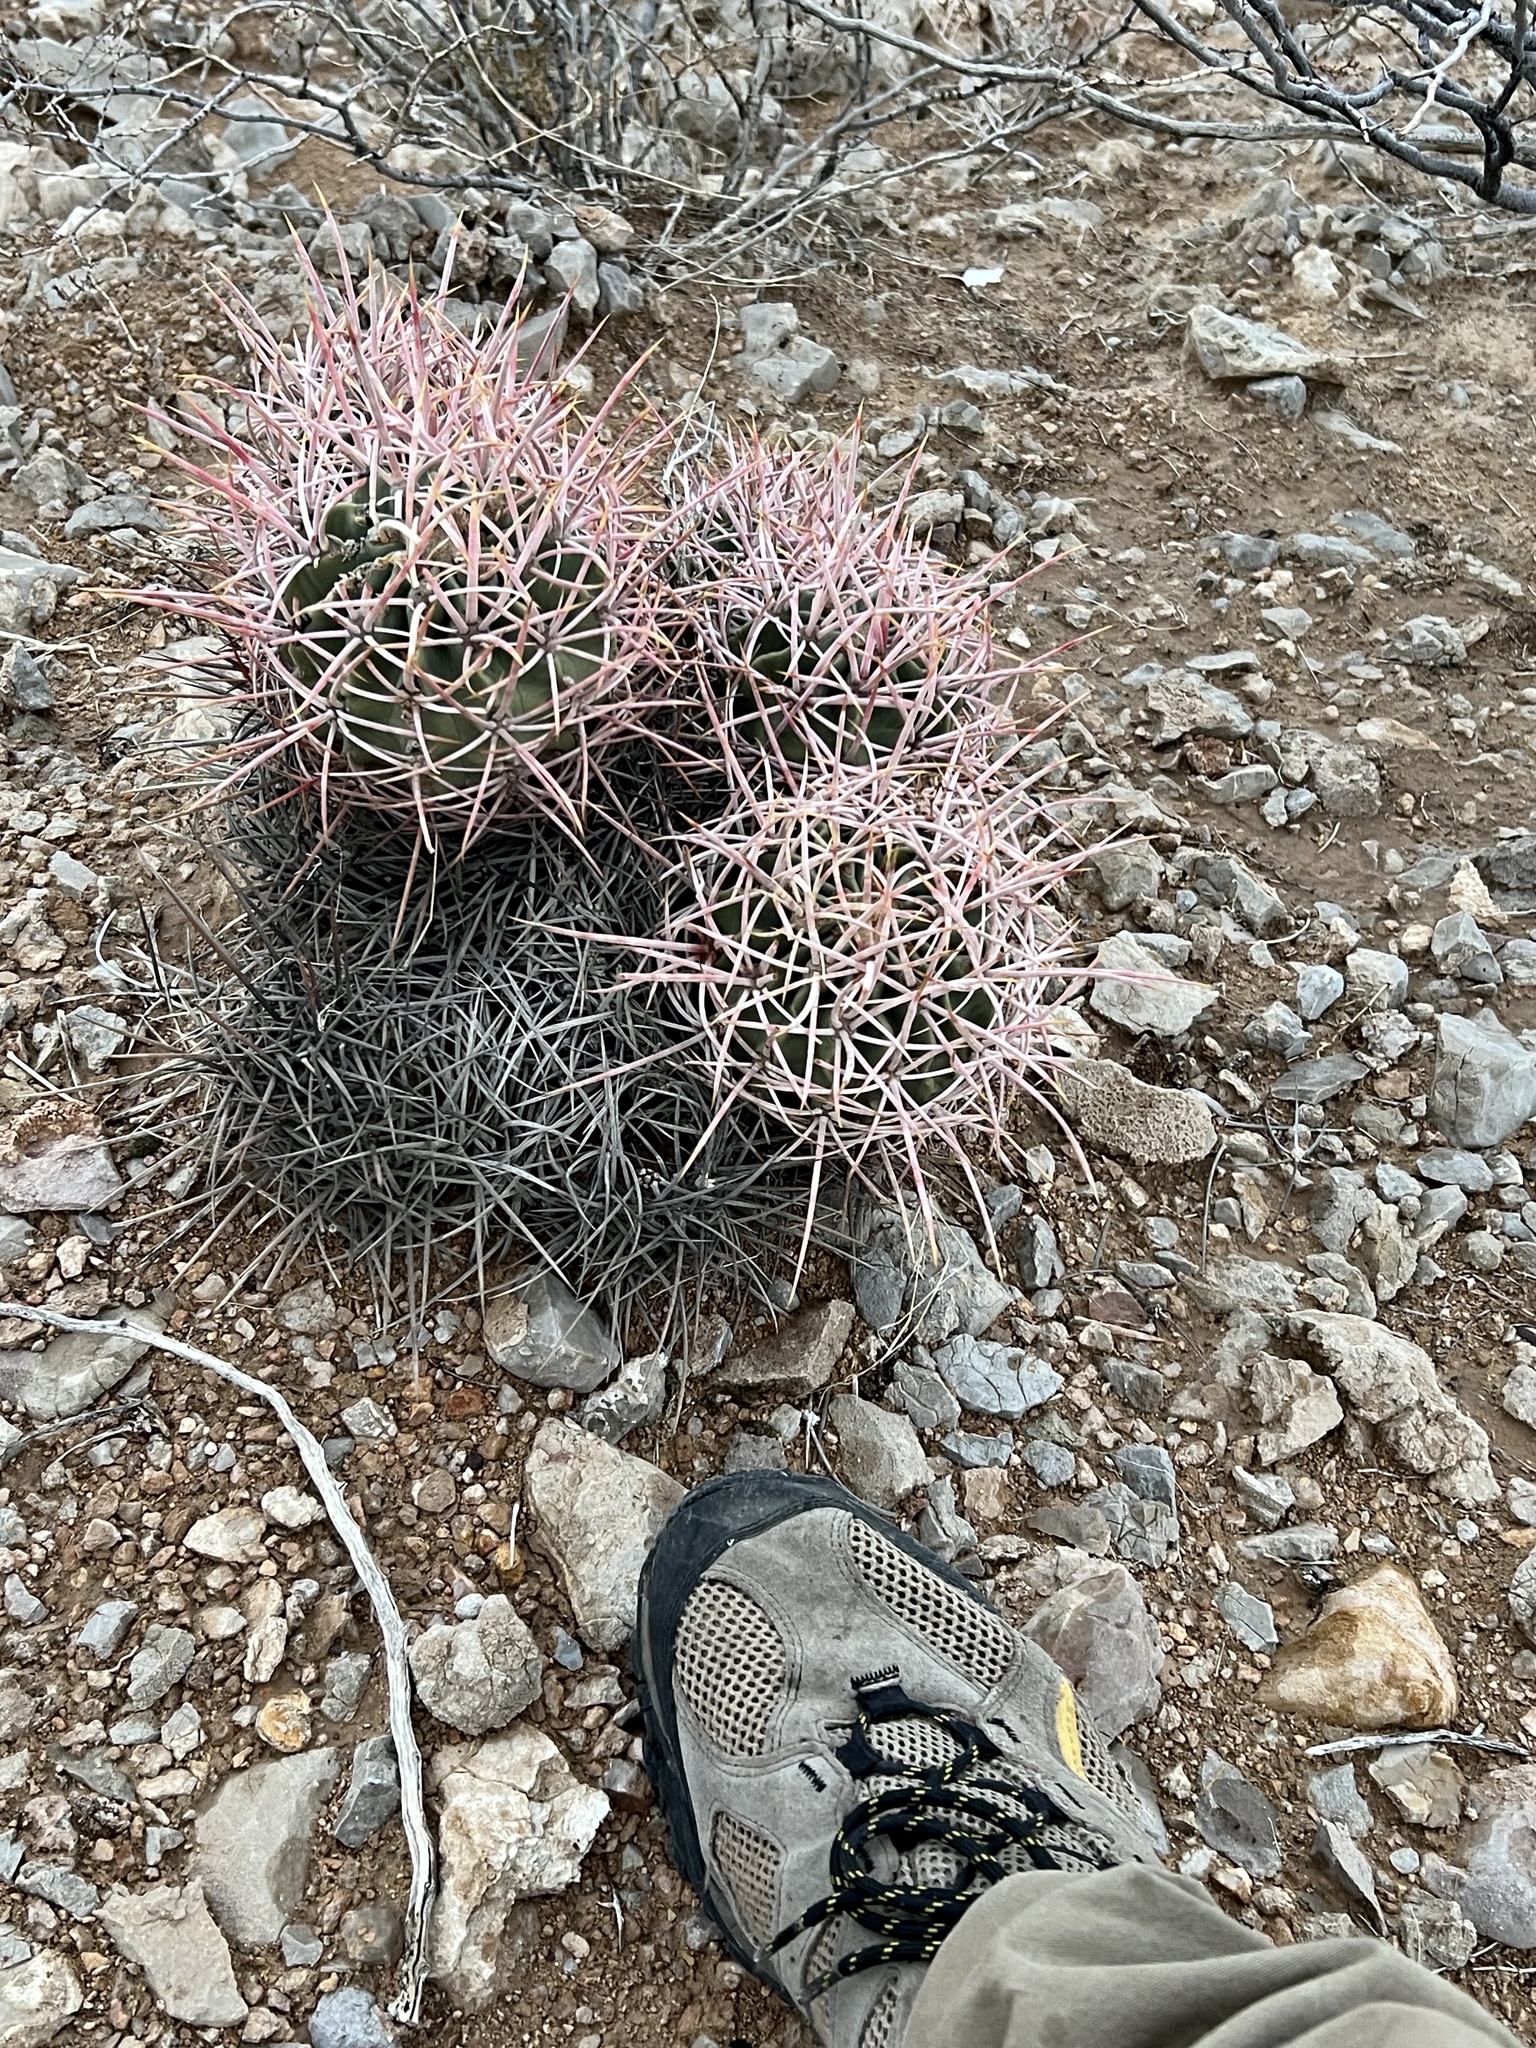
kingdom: Plantae
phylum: Tracheophyta
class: Magnoliopsida
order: Caryophyllales
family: Cactaceae
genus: Echinocactus
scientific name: Echinocactus polycephalus
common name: Cottontop cactus
